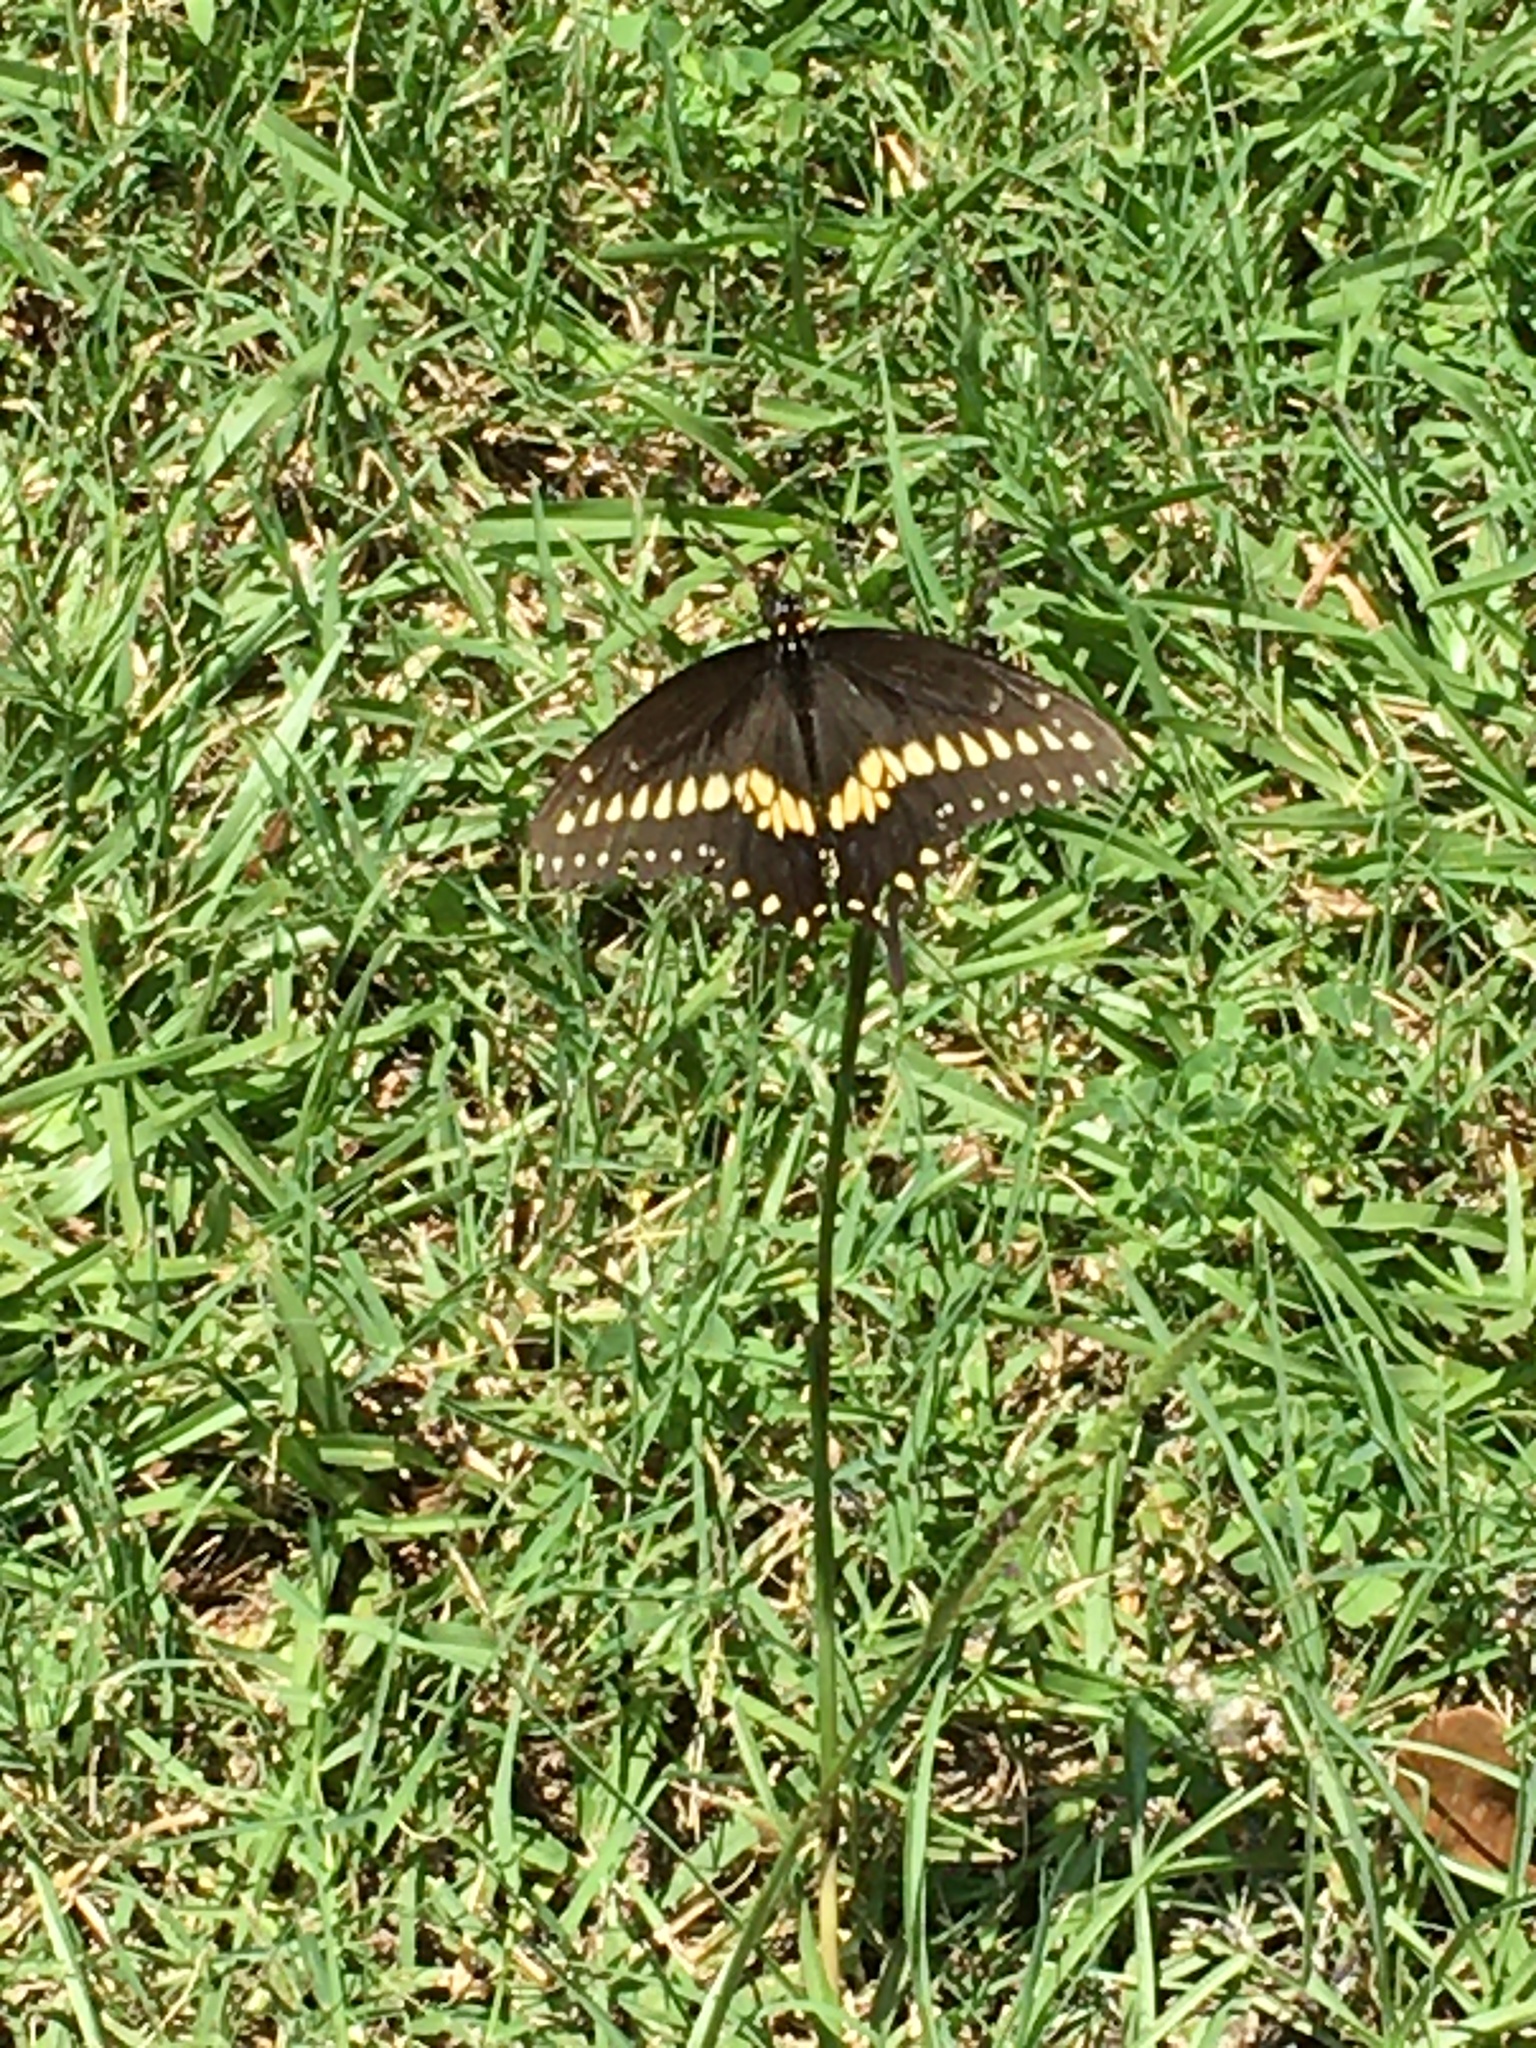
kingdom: Animalia
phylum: Arthropoda
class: Insecta
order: Lepidoptera
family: Papilionidae
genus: Papilio
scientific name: Papilio polyxenes
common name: Black swallowtail
